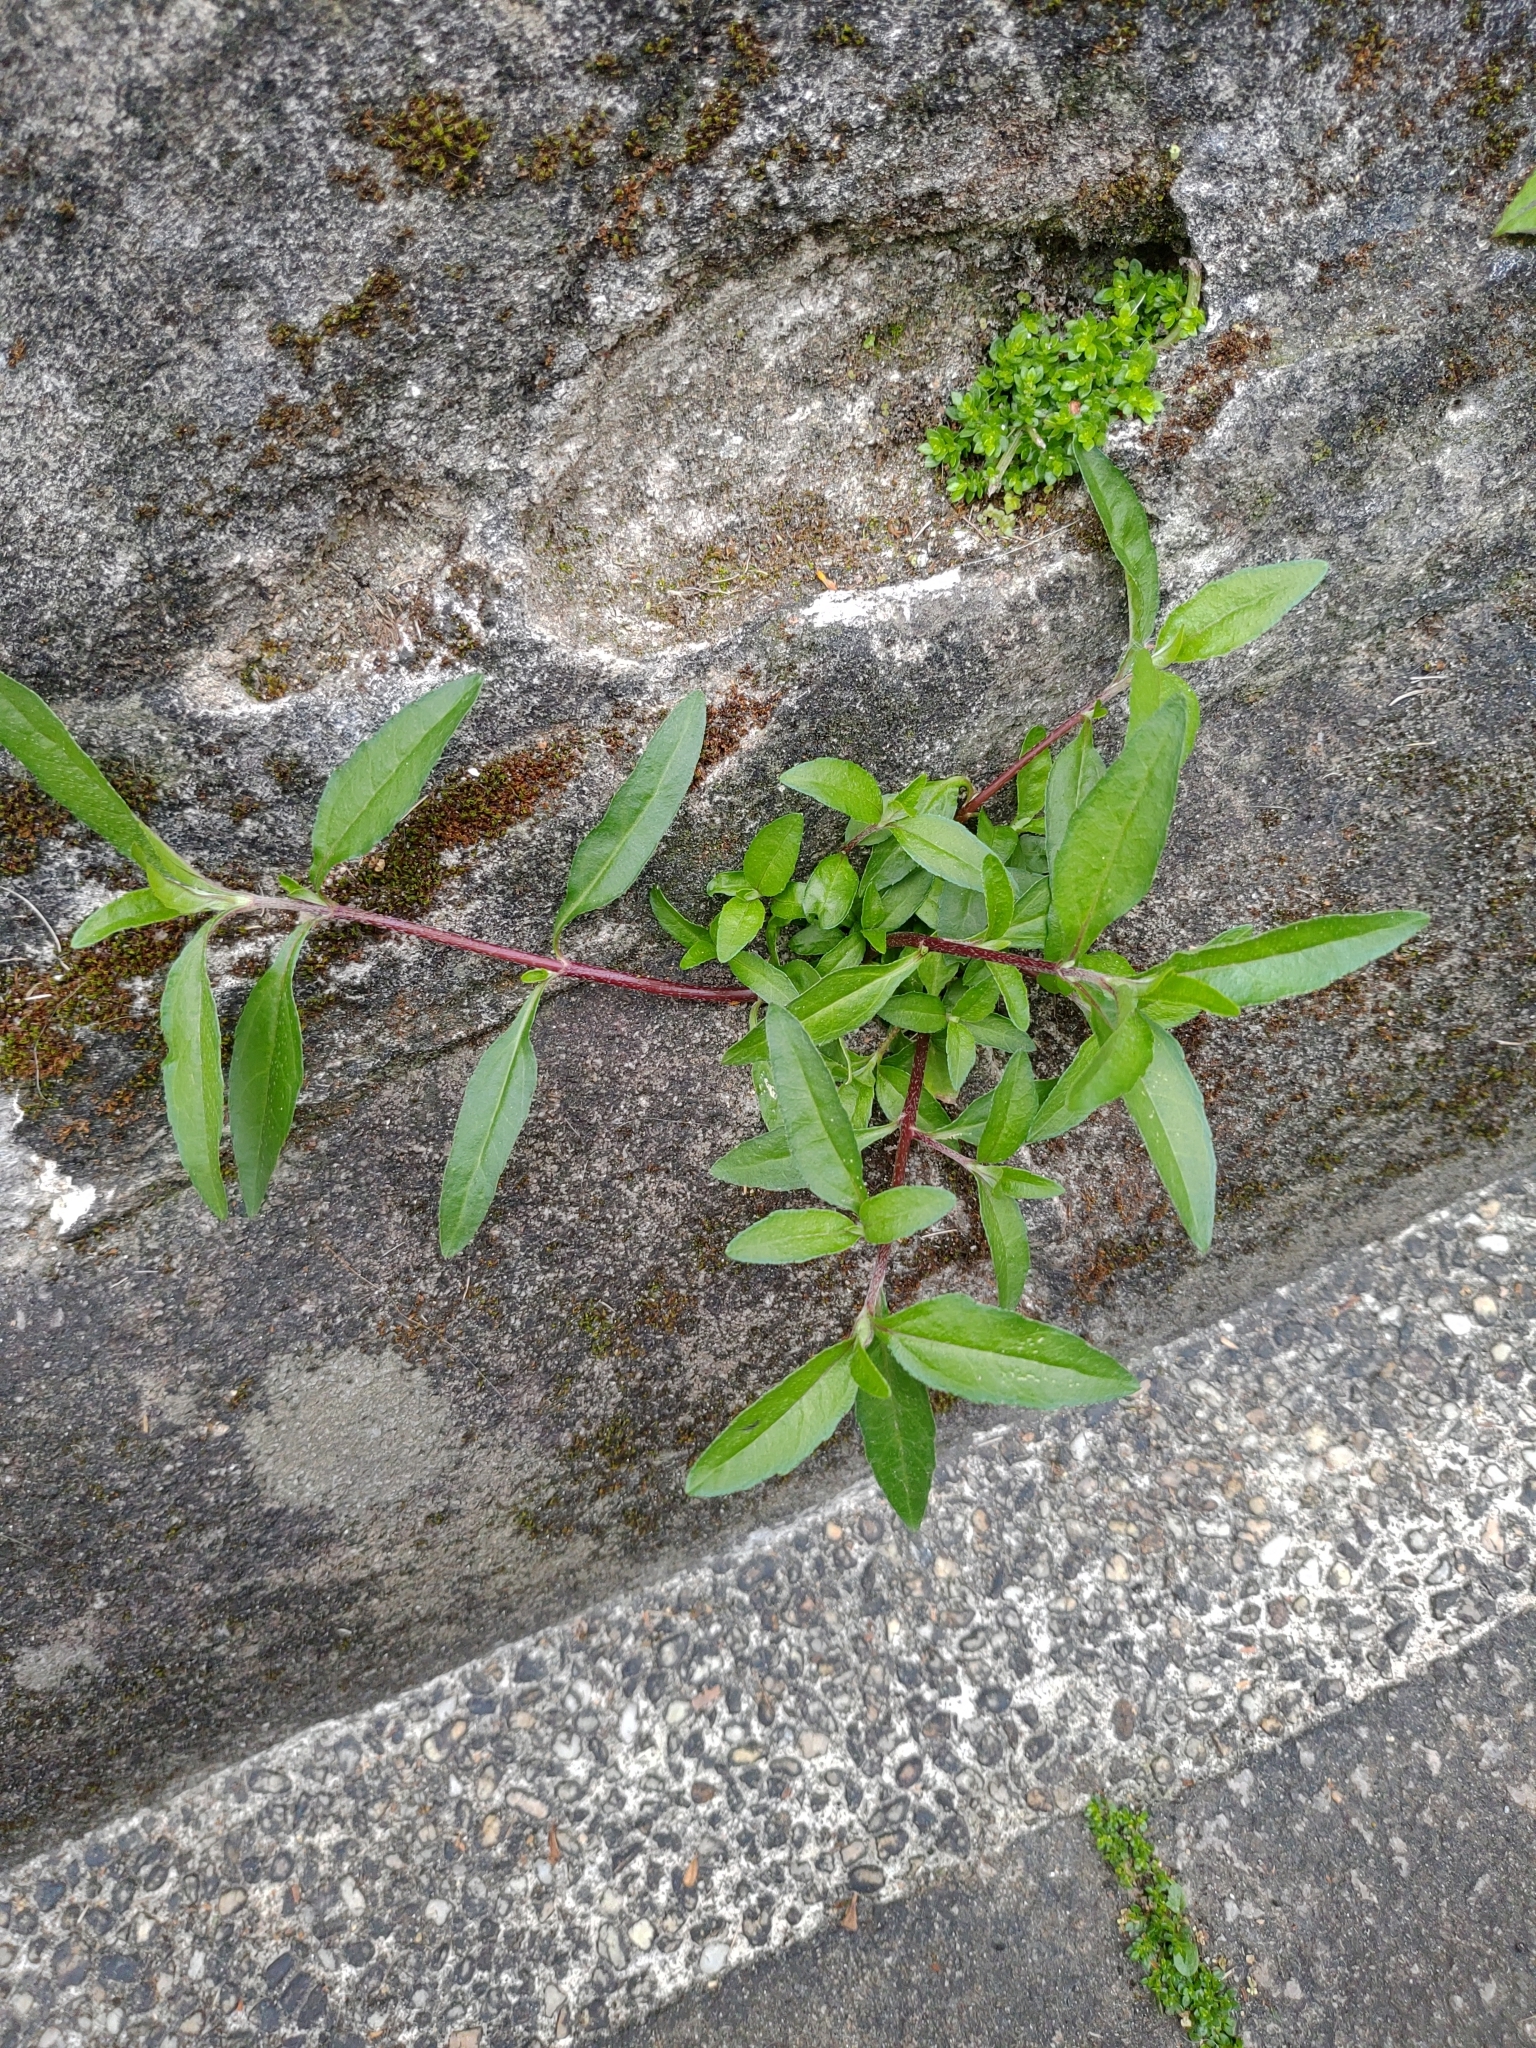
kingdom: Plantae
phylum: Tracheophyta
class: Magnoliopsida
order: Asterales
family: Asteraceae
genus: Eclipta
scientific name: Eclipta prostrata
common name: False daisy
